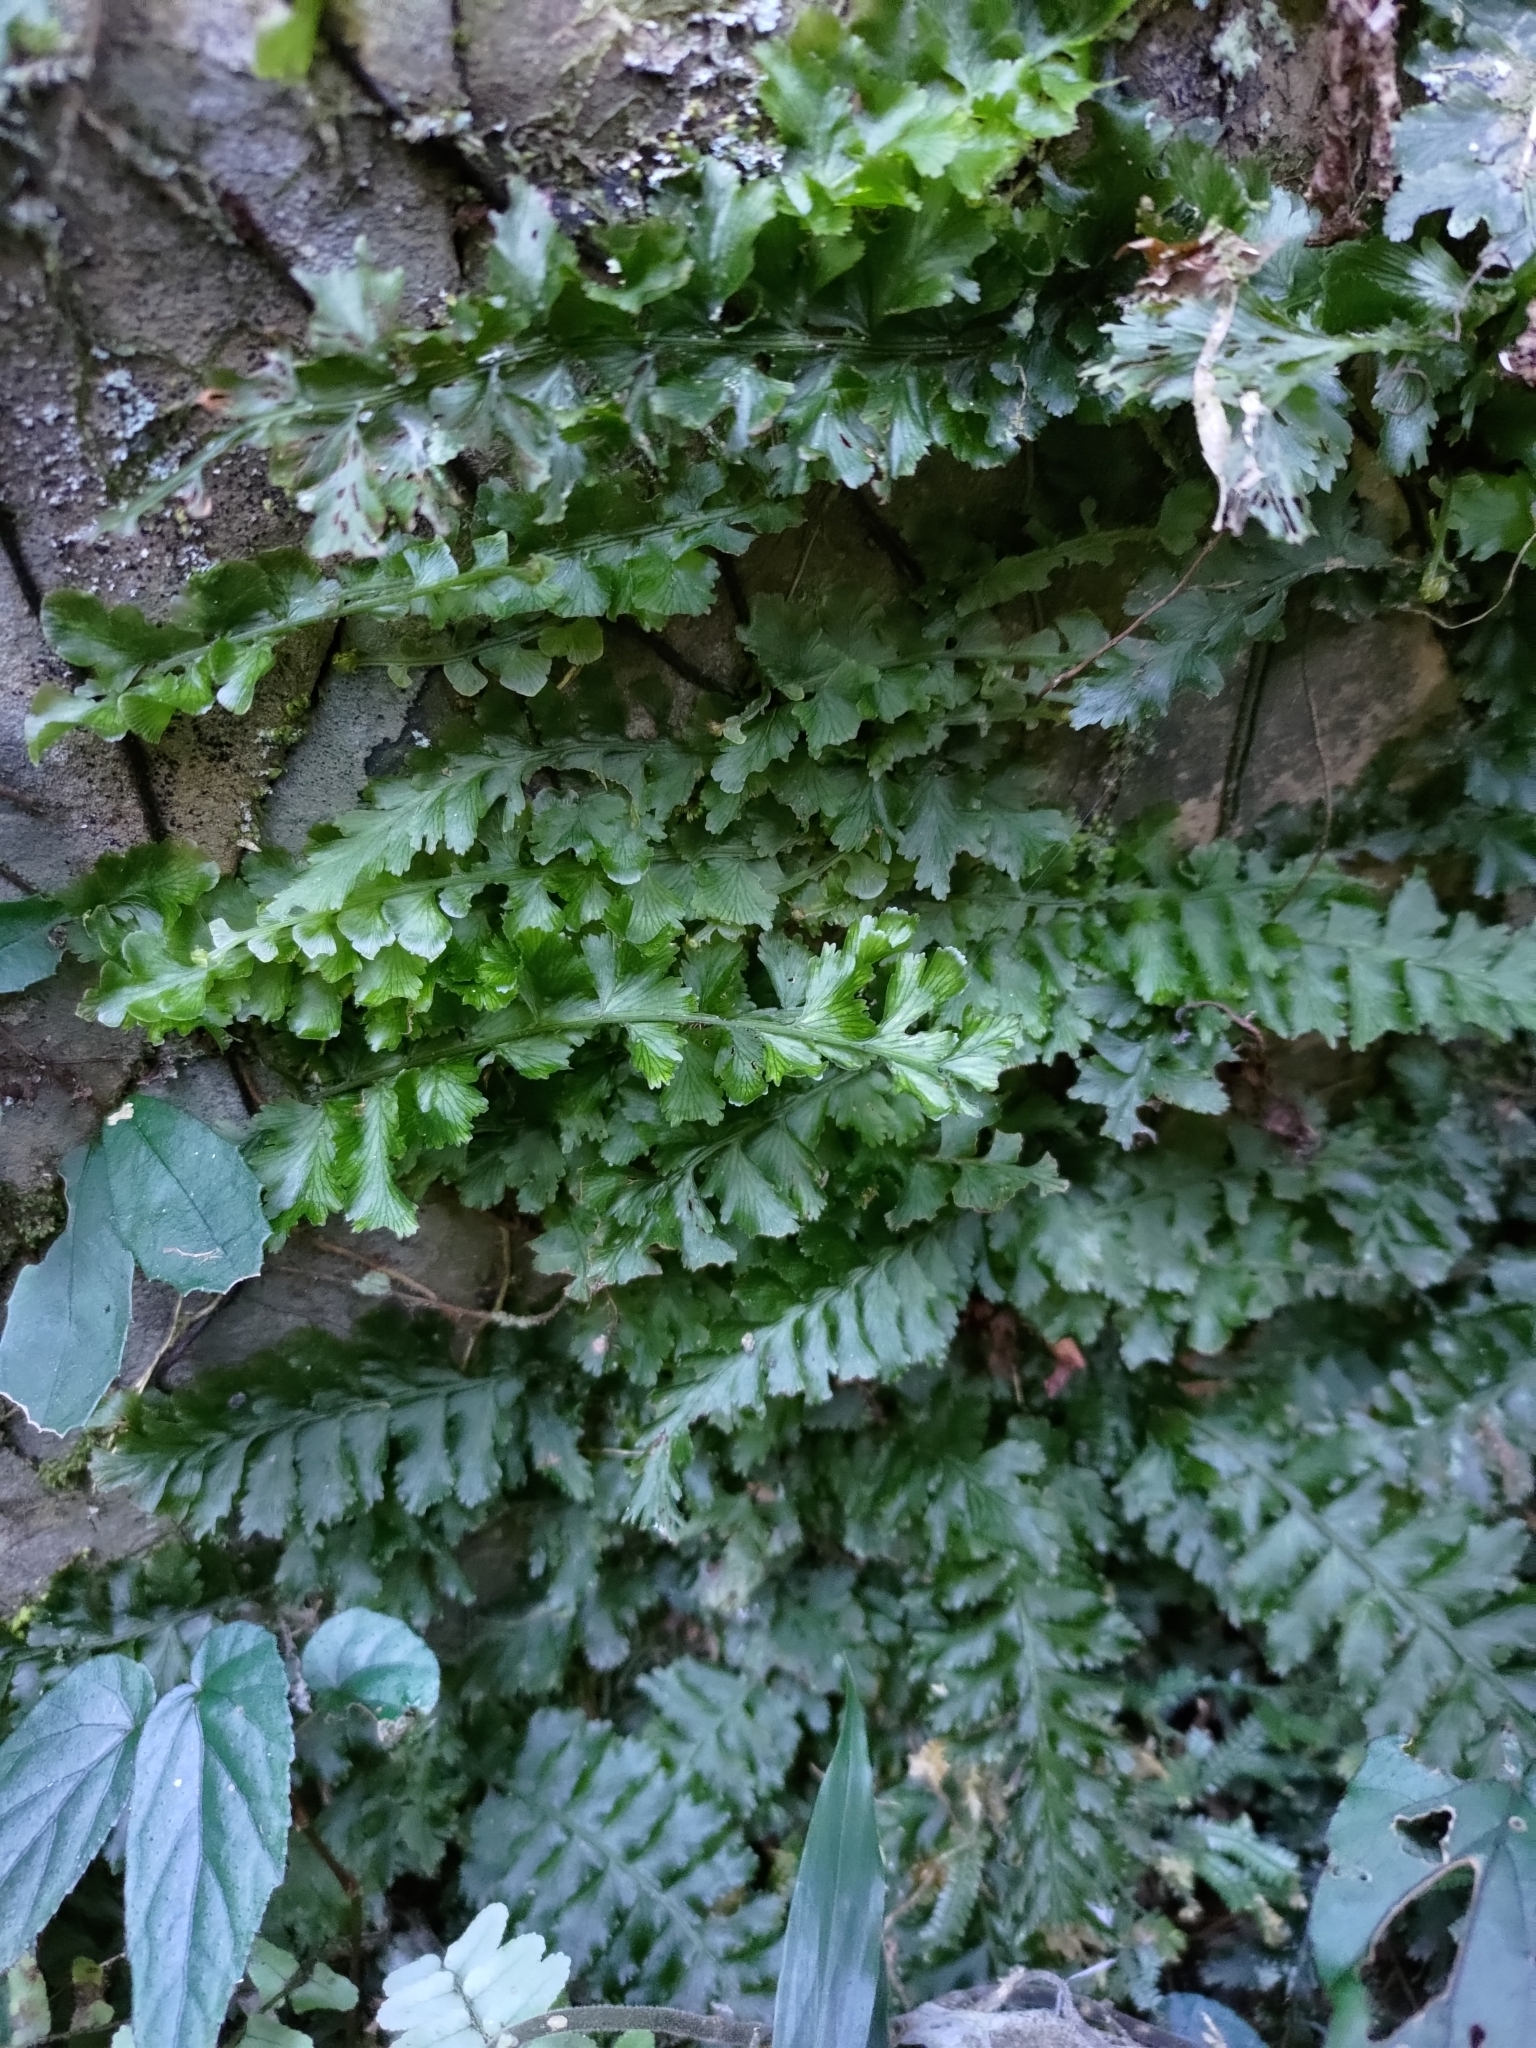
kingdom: Plantae
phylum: Tracheophyta
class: Polypodiopsida
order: Hymenophyllales
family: Hymenophyllaceae
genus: Vandenboschia
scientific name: Vandenboschia auriculata
